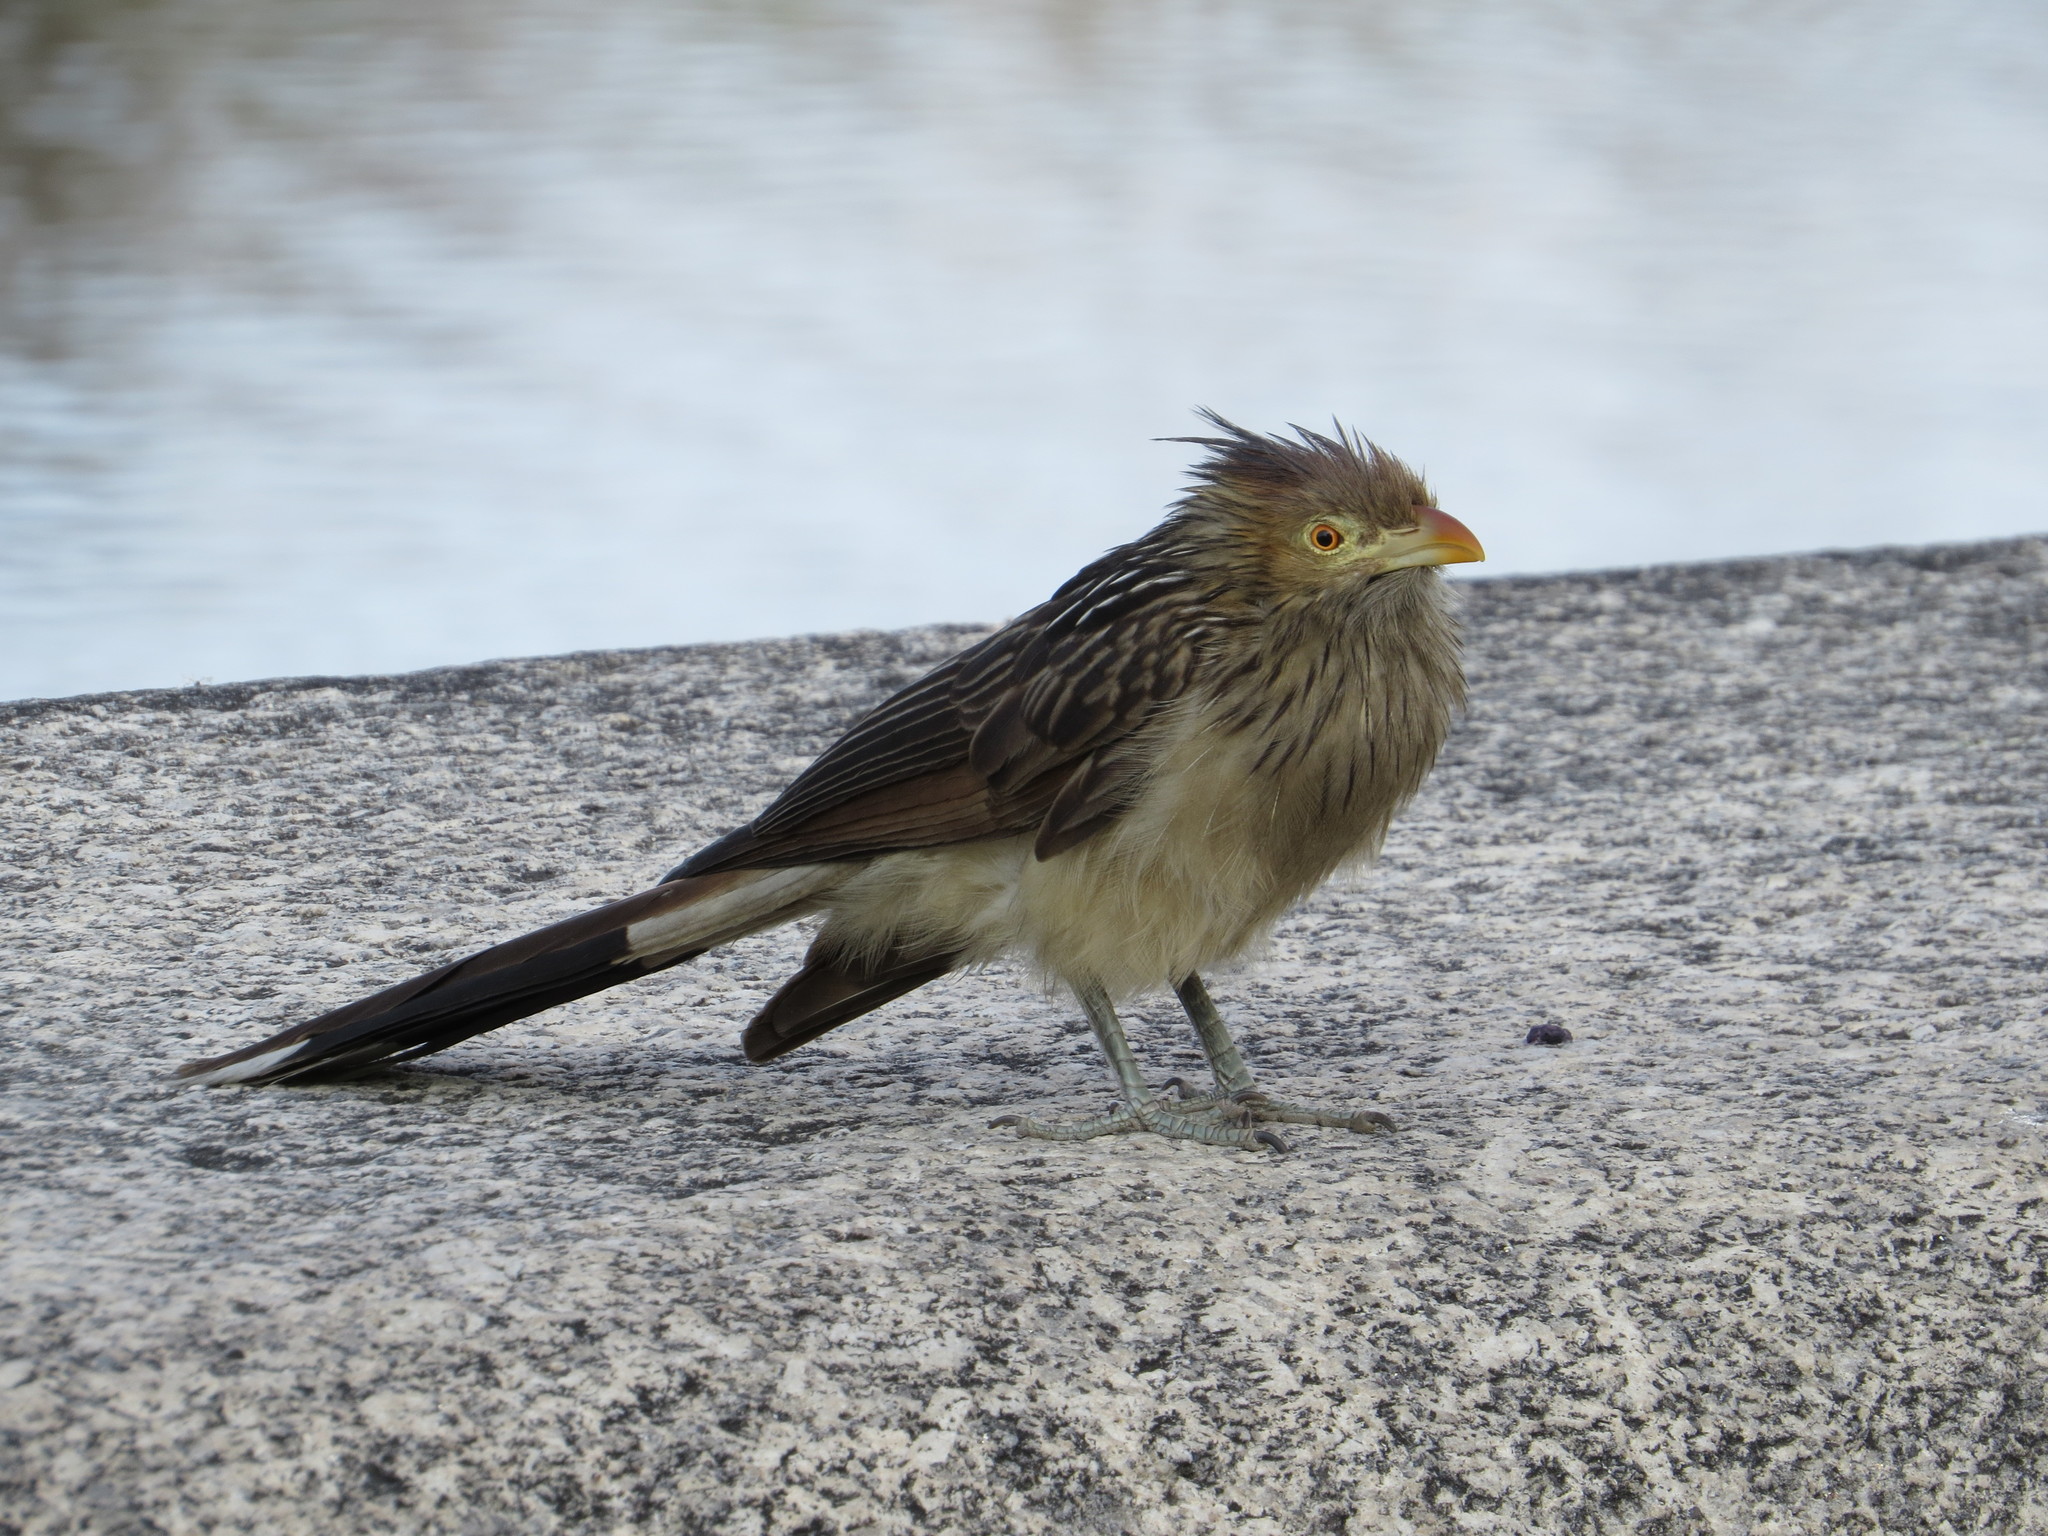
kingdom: Animalia
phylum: Chordata
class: Aves
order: Cuculiformes
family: Cuculidae
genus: Guira
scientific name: Guira guira
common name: Guira cuckoo
